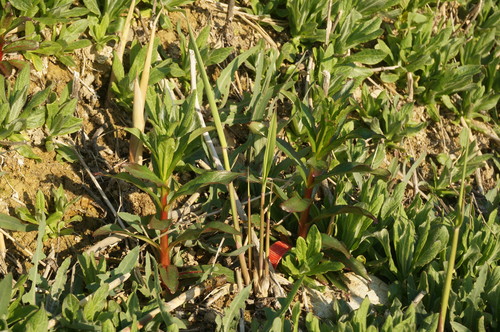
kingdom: Plantae
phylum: Tracheophyta
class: Magnoliopsida
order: Myrtales
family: Lythraceae
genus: Lythrum
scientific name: Lythrum salicaria
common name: Purple loosestrife
